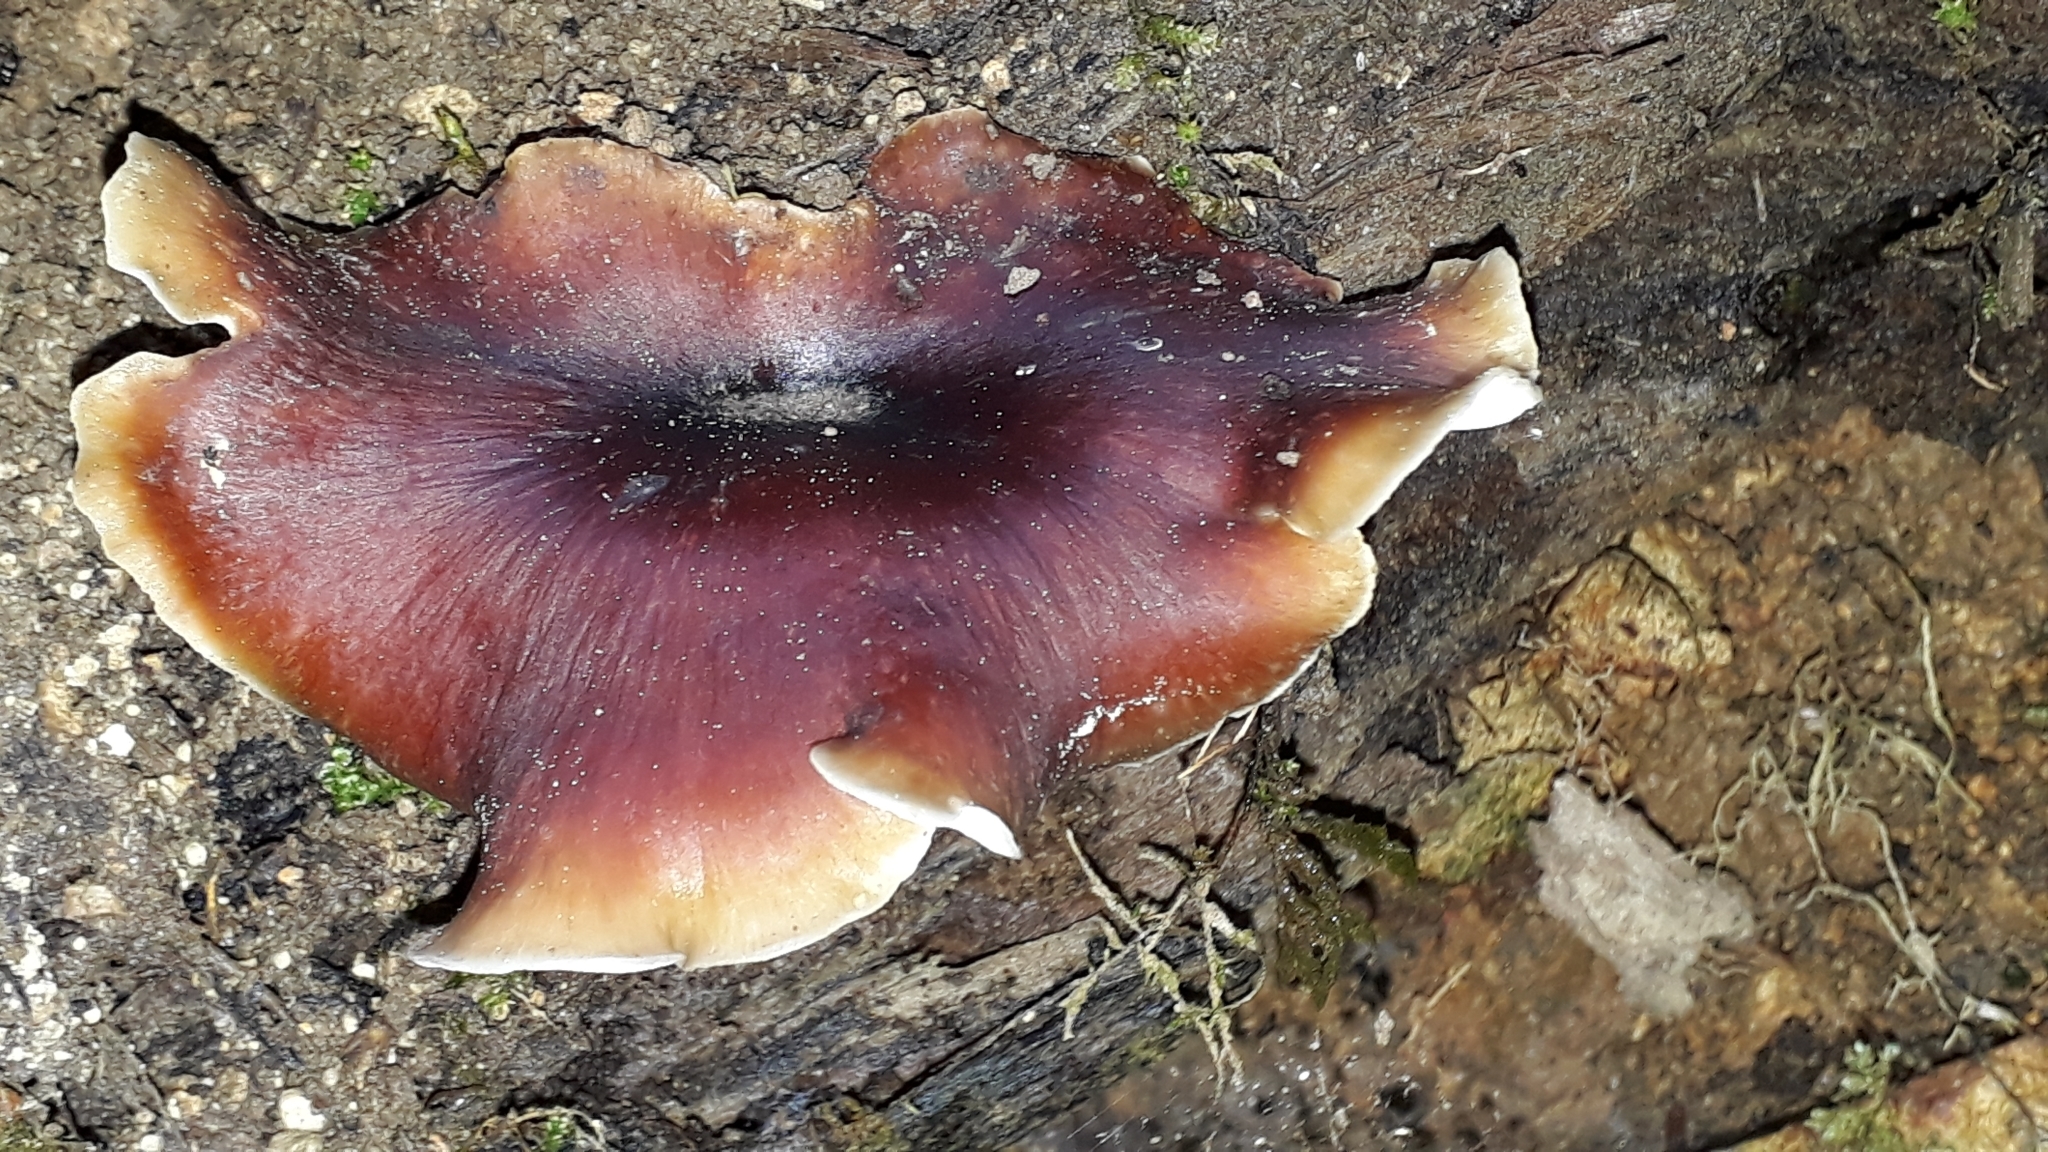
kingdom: Fungi
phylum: Basidiomycota
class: Agaricomycetes
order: Polyporales
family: Polyporaceae
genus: Picipes
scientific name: Picipes badius
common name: Bay polypore
